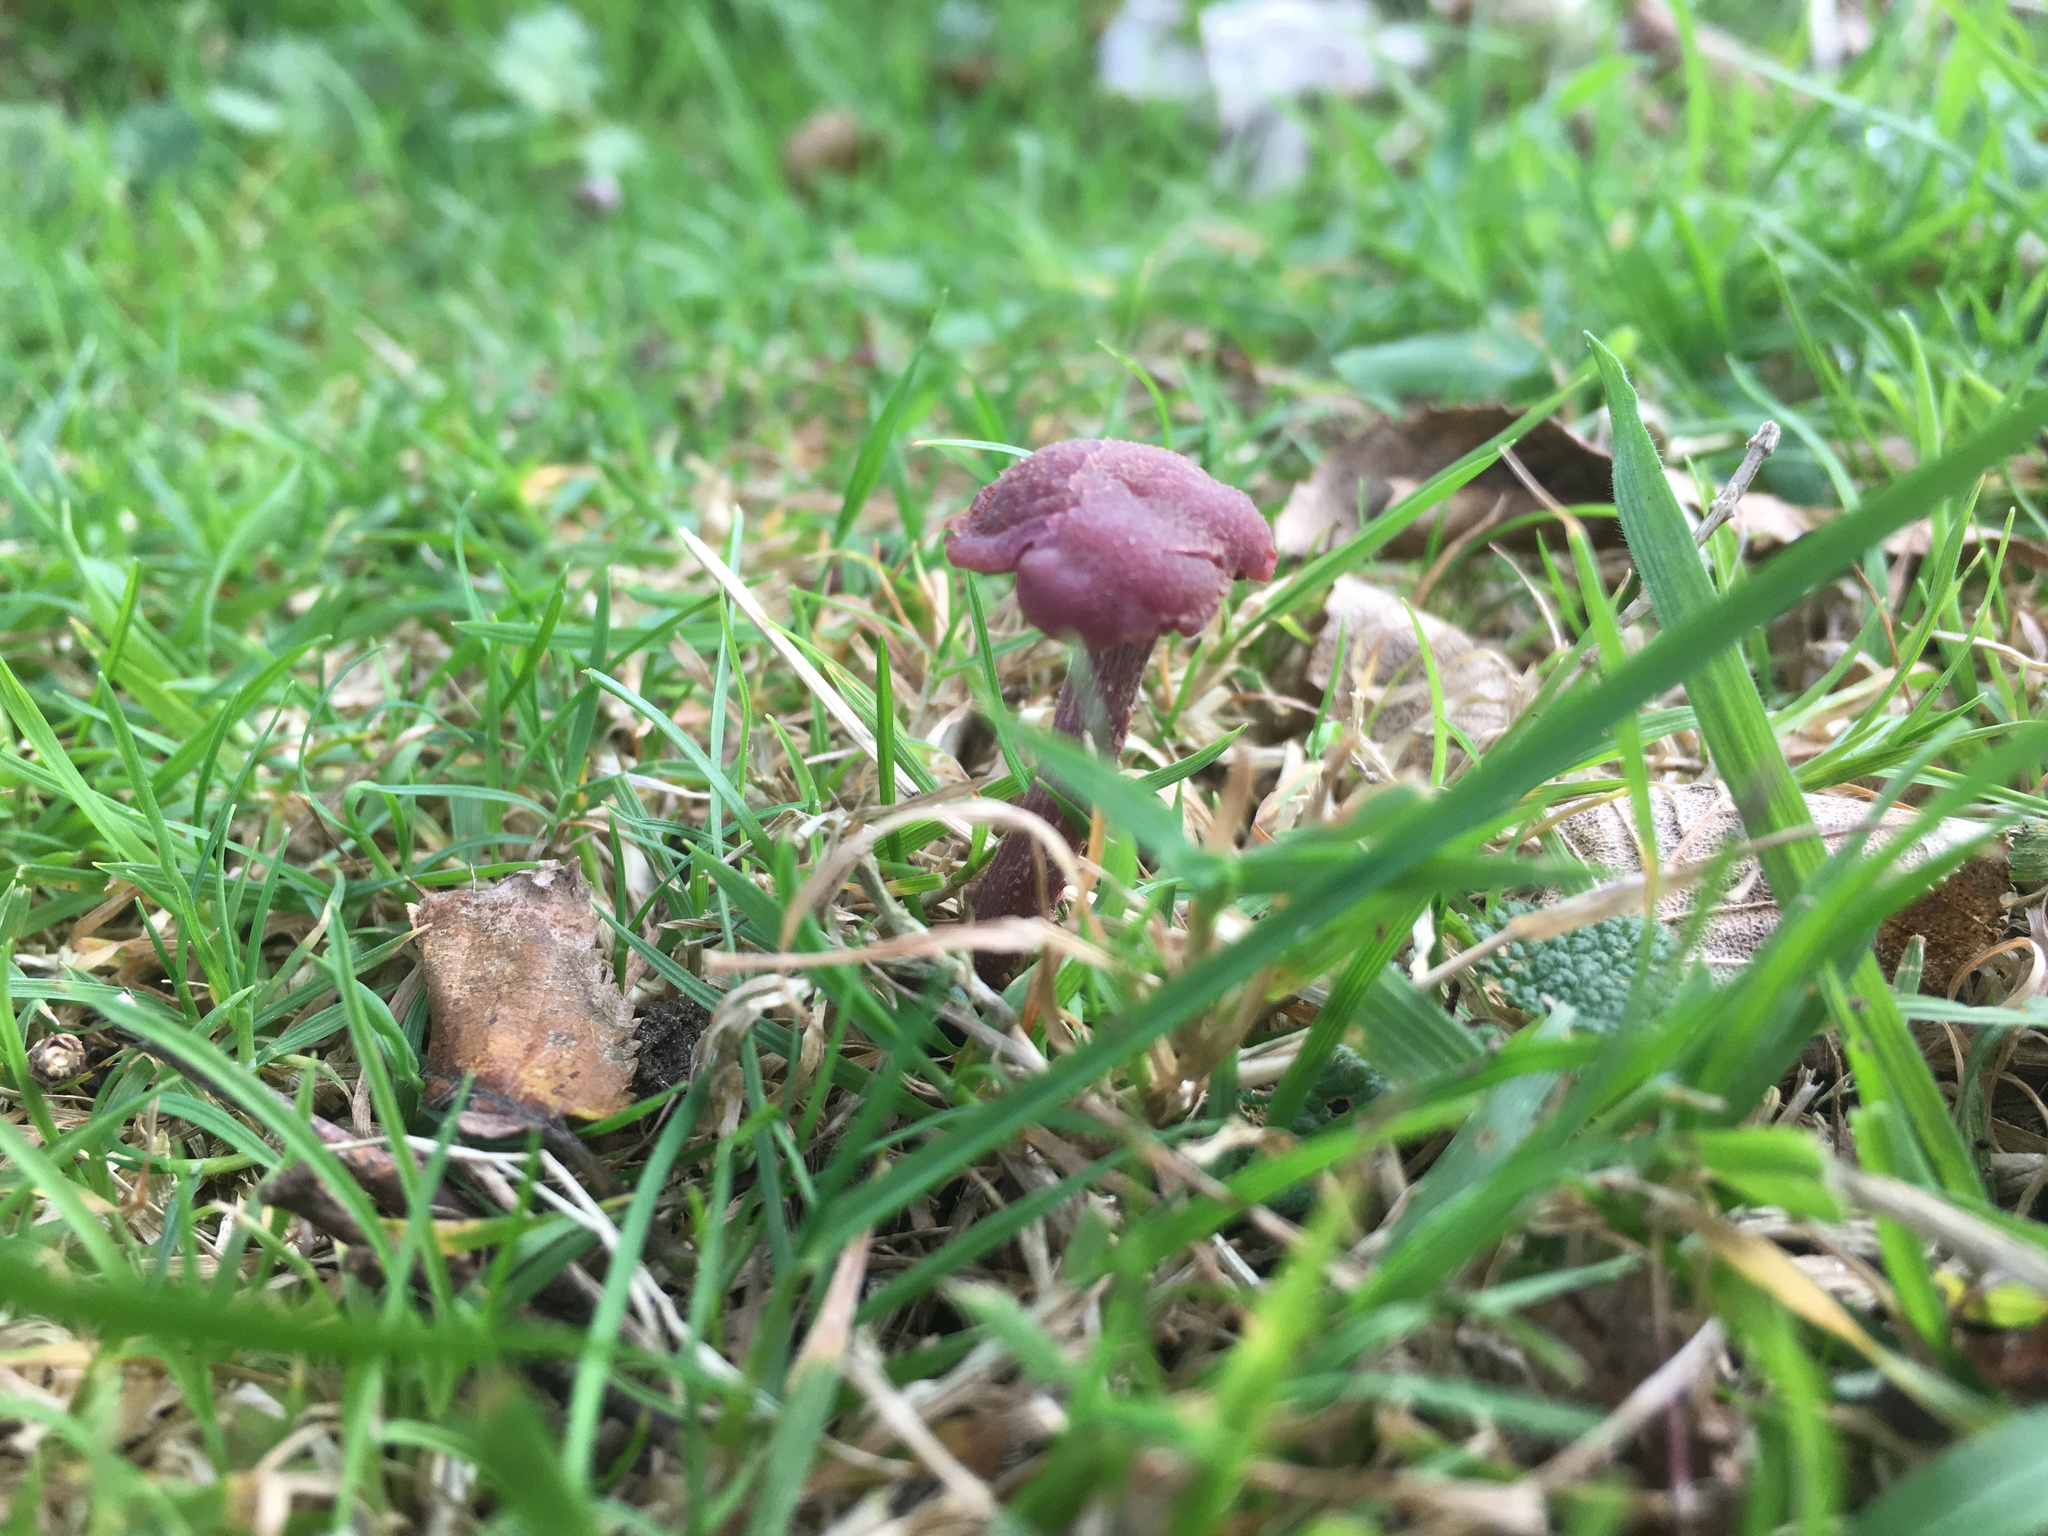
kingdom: Fungi
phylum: Basidiomycota
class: Agaricomycetes
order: Agaricales
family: Hydnangiaceae
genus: Laccaria
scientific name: Laccaria amethystina
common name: Amethyst deceiver
